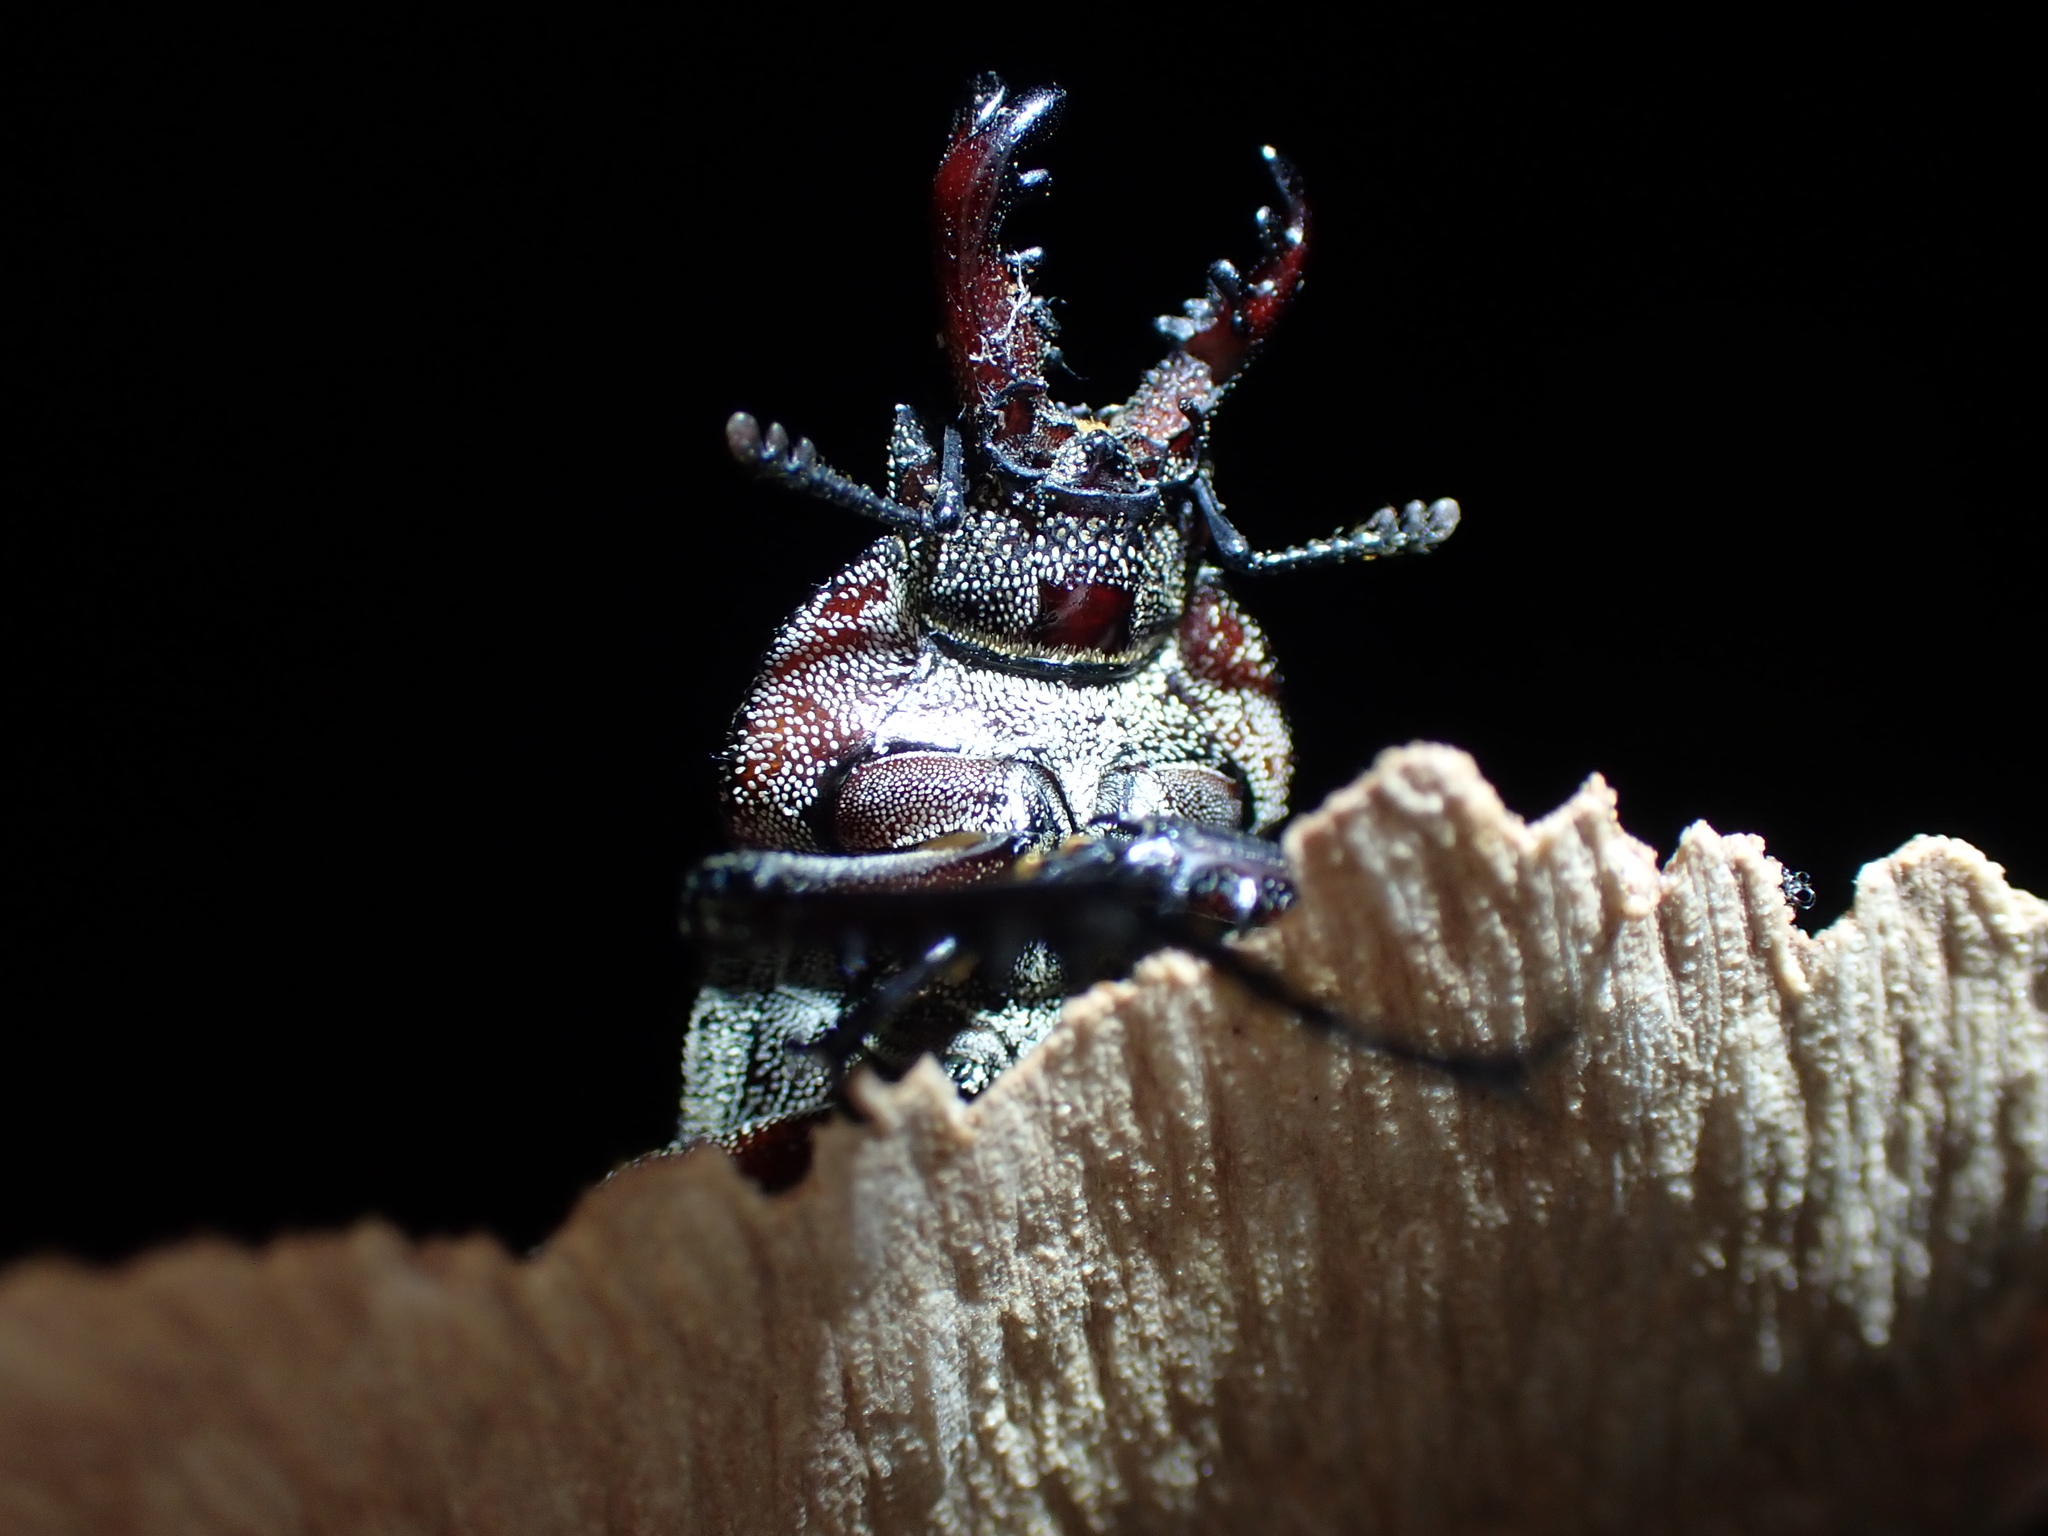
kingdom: Animalia
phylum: Arthropoda
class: Insecta
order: Coleoptera
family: Lucanidae
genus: Cacostomus
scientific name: Cacostomus squamosus
